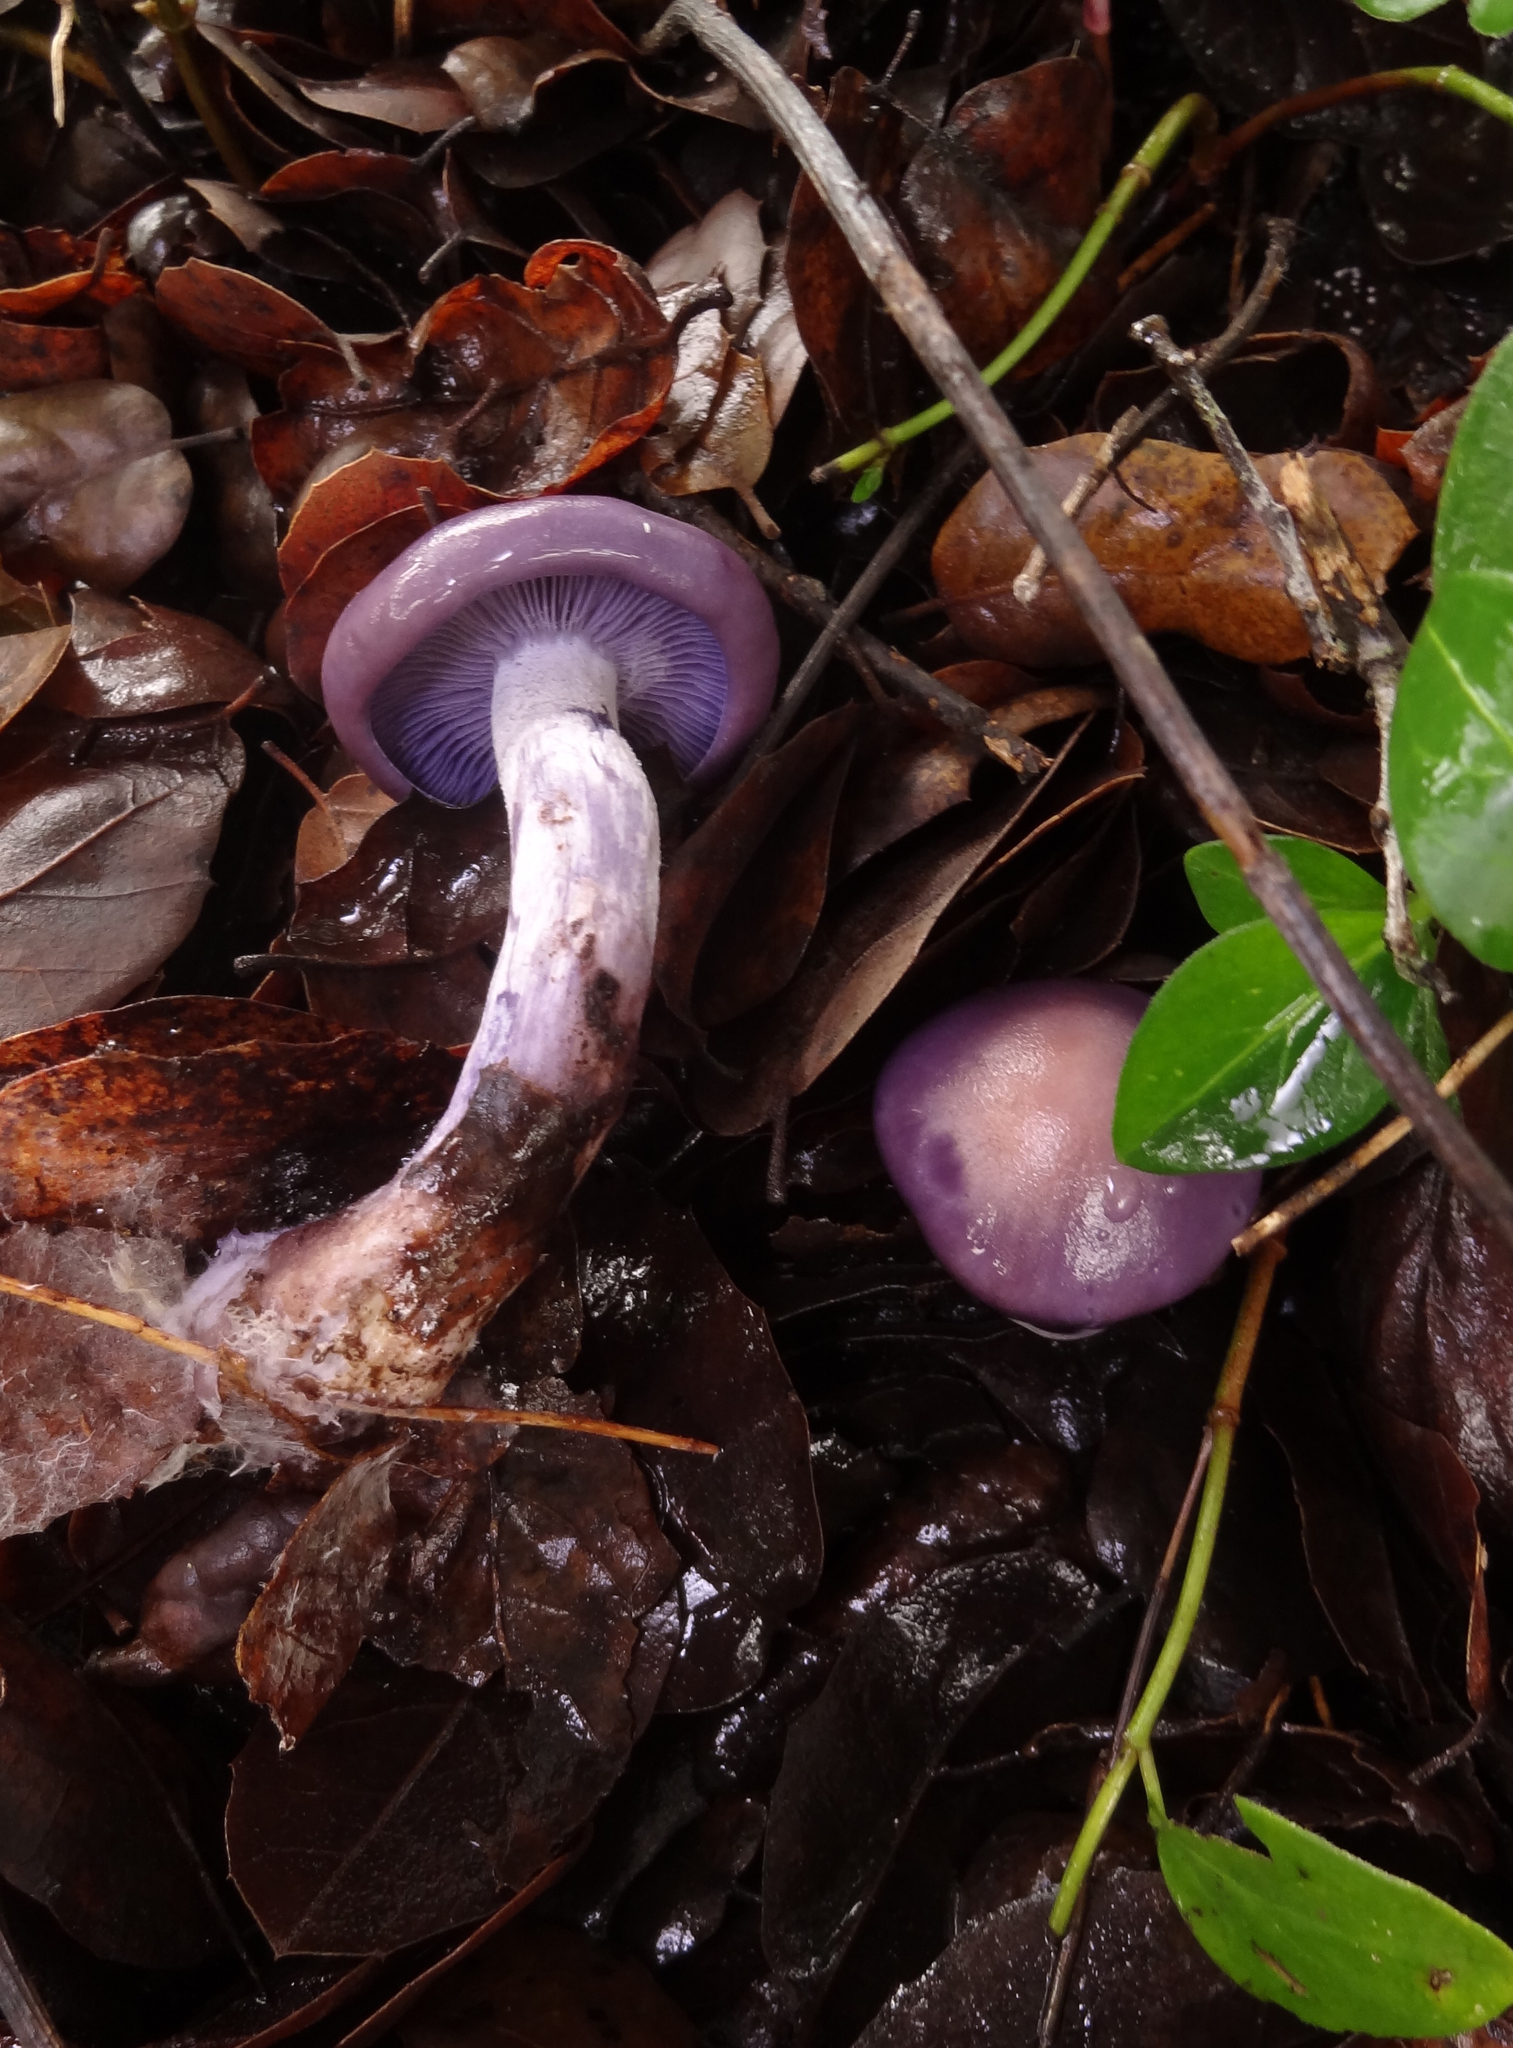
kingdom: Fungi
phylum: Basidiomycota
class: Agaricomycetes
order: Agaricales
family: Tricholomataceae
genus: Collybia
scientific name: Collybia
